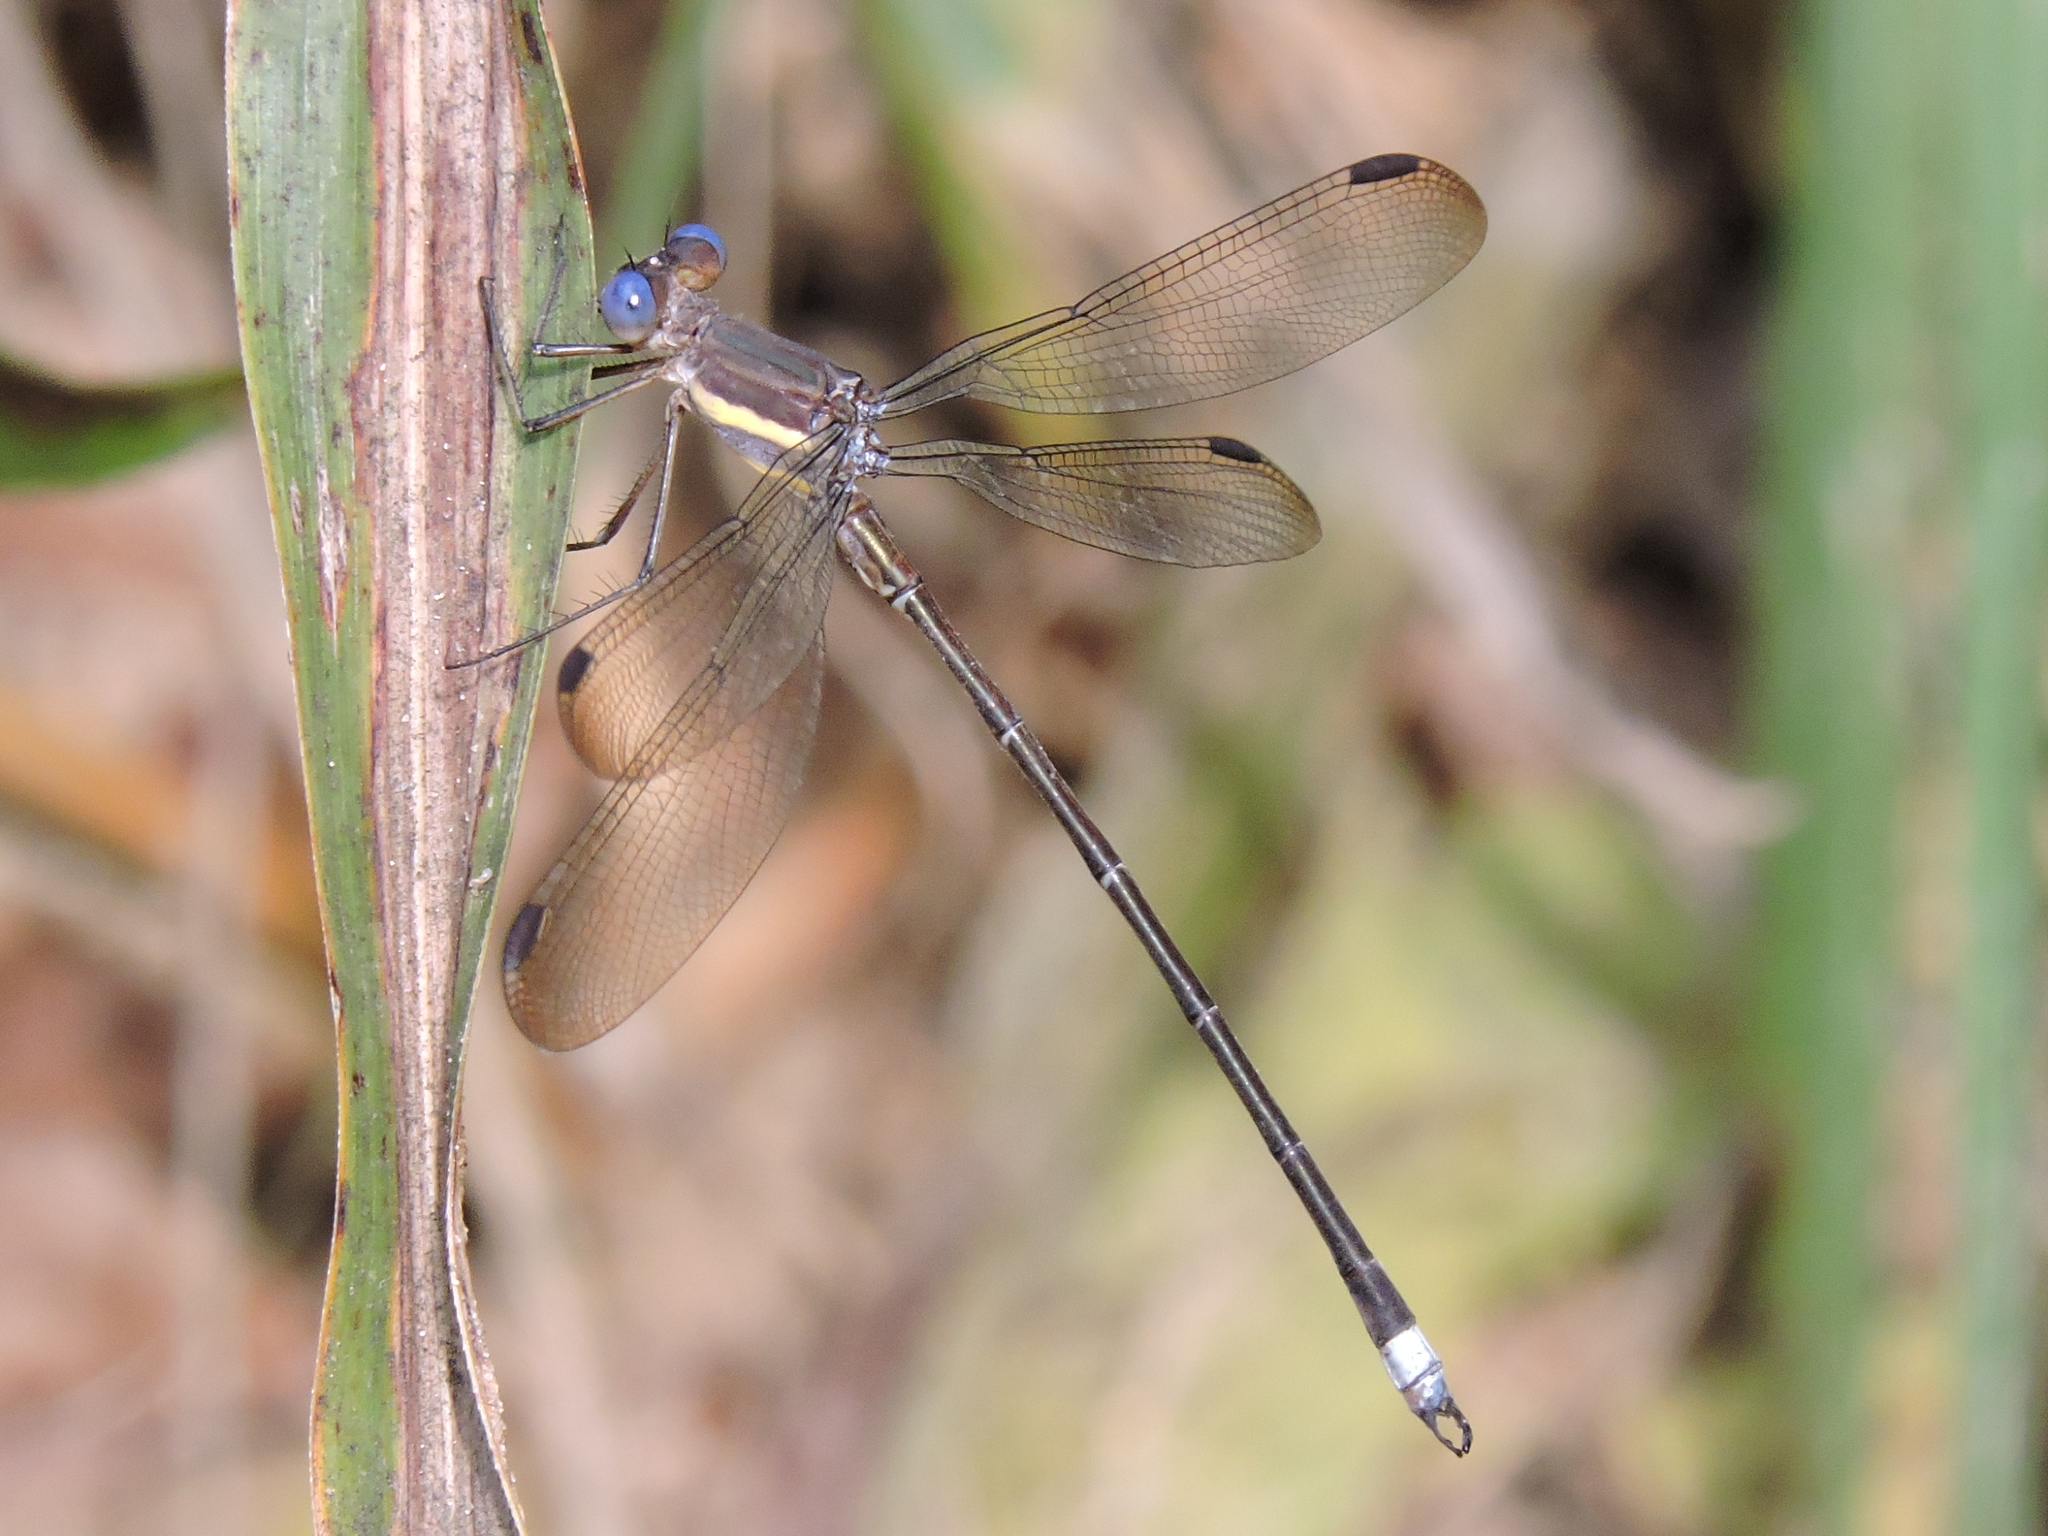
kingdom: Animalia
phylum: Arthropoda
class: Insecta
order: Odonata
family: Lestidae
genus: Archilestes
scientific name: Archilestes grandis
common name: Great spreadwing
